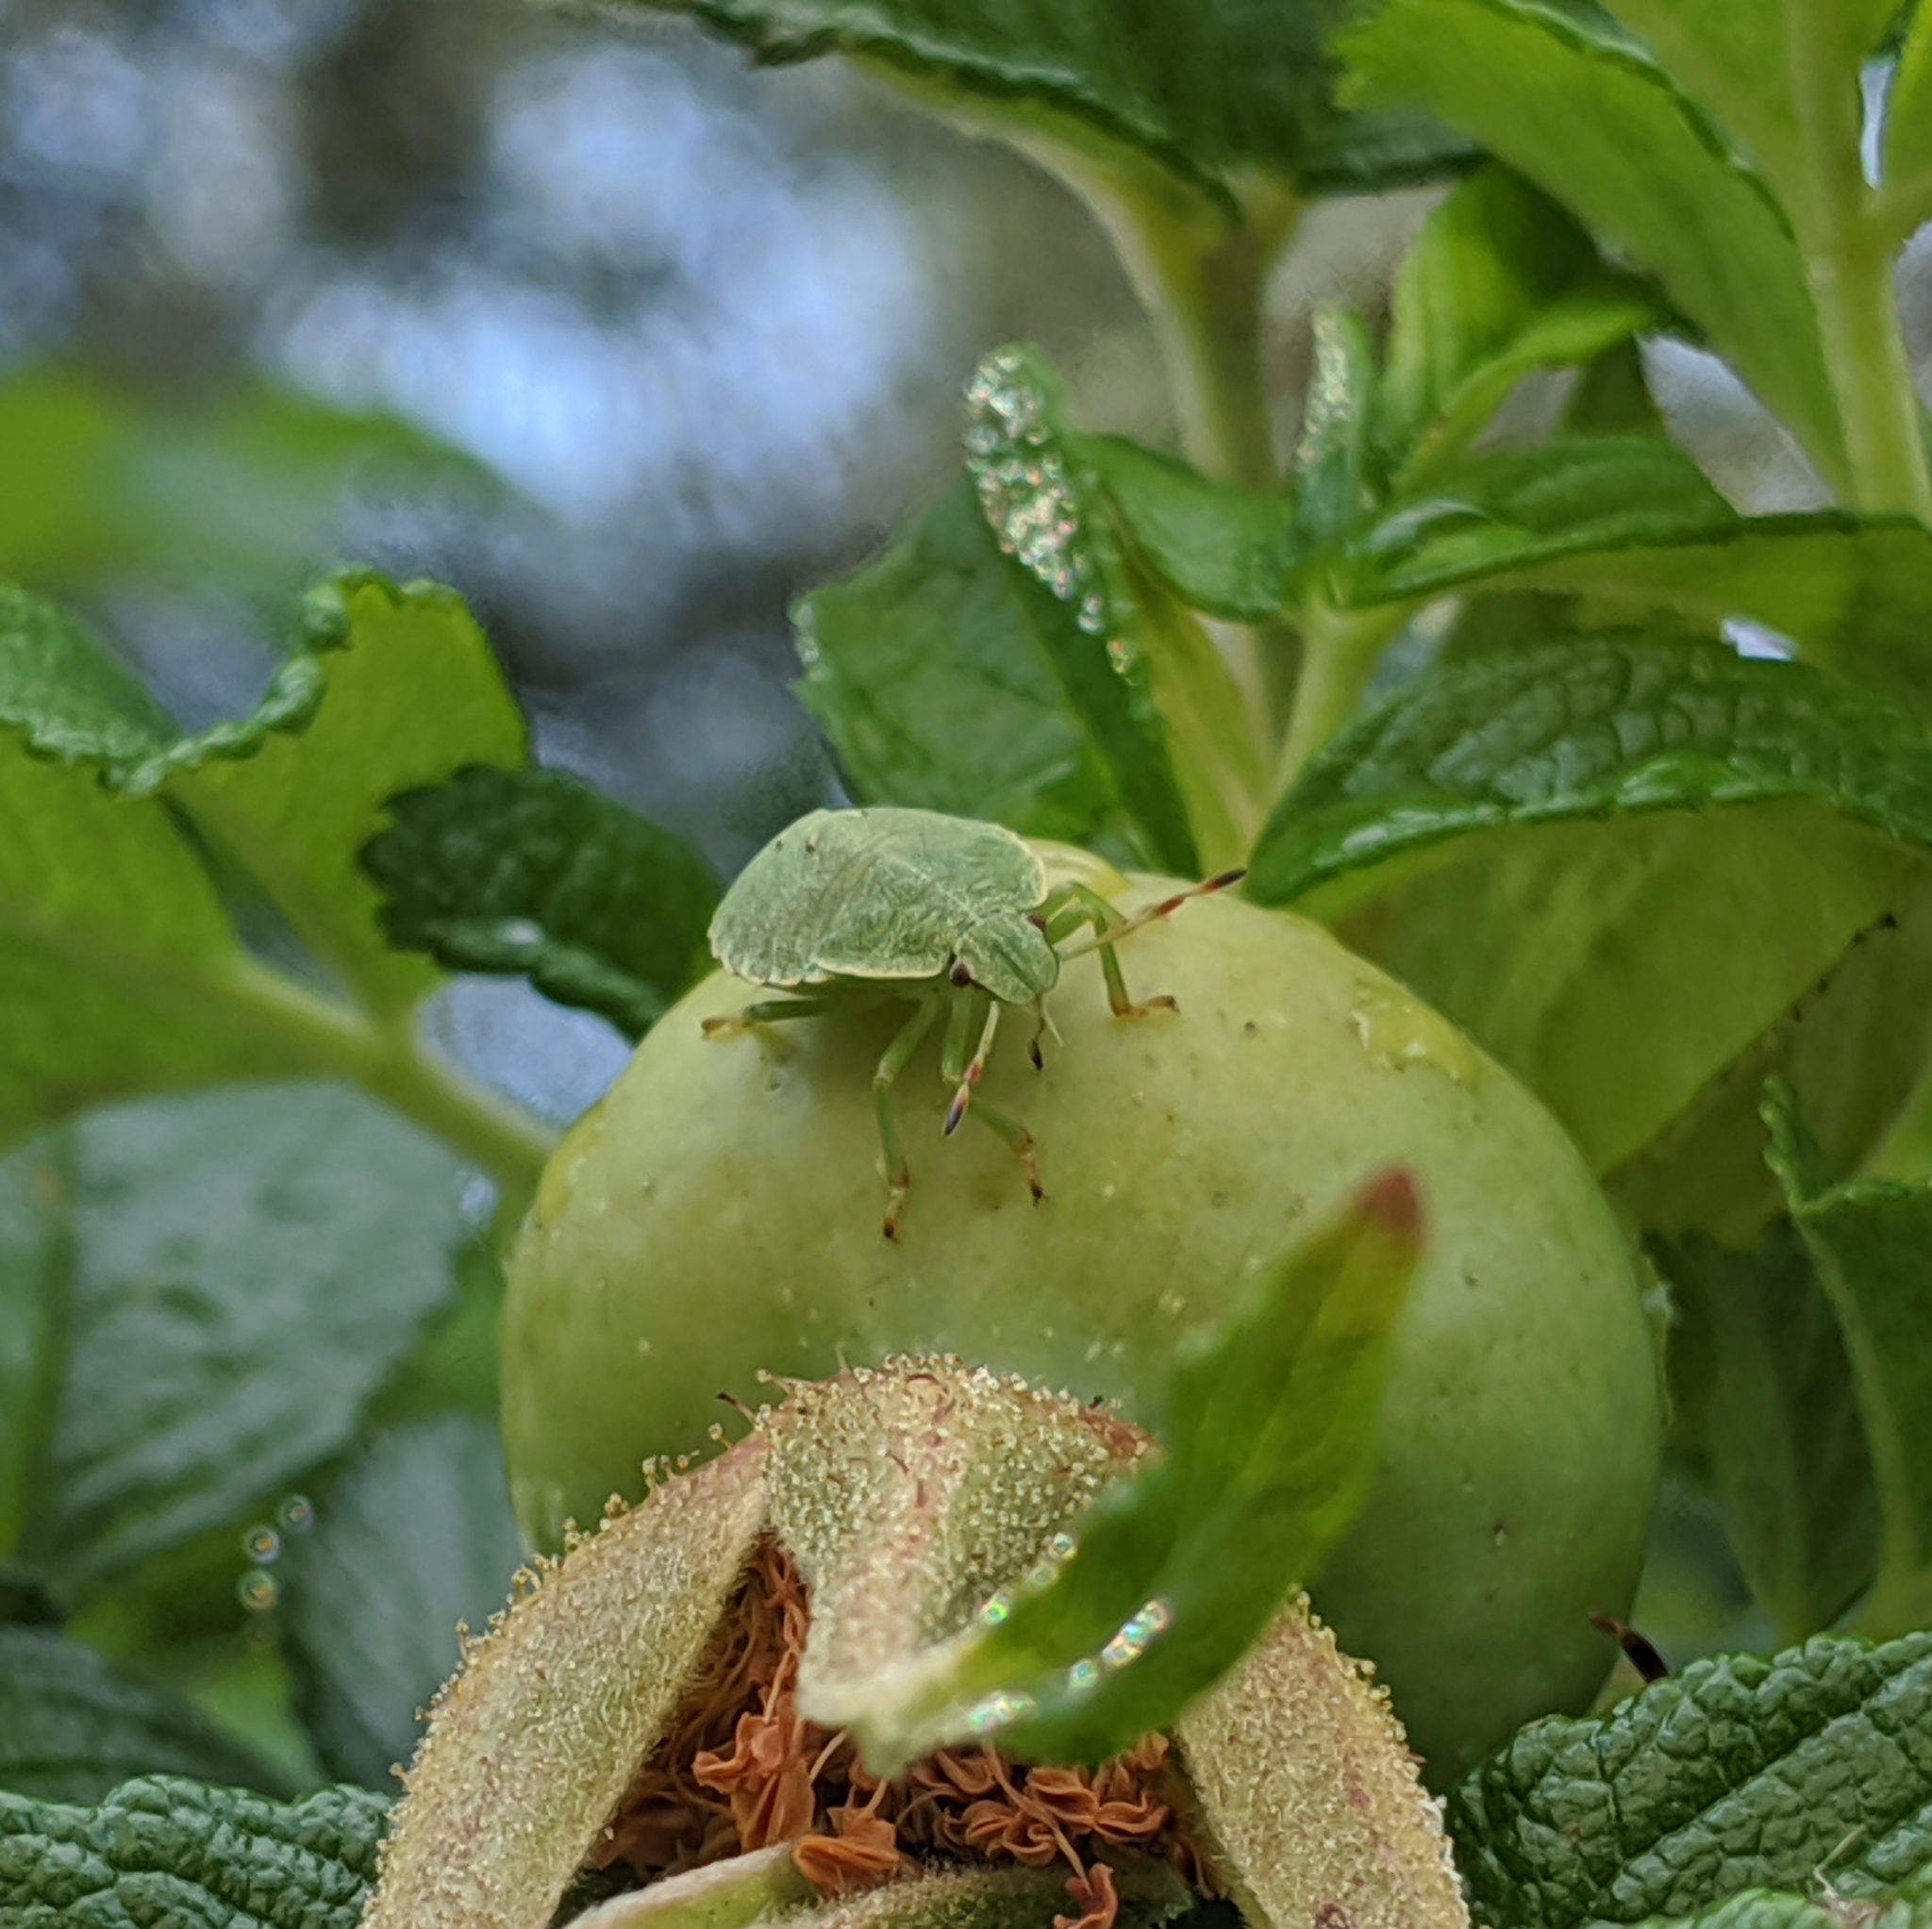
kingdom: Animalia
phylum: Arthropoda
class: Insecta
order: Hemiptera
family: Pentatomidae
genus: Palomena
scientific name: Palomena prasina
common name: Green shieldbug
